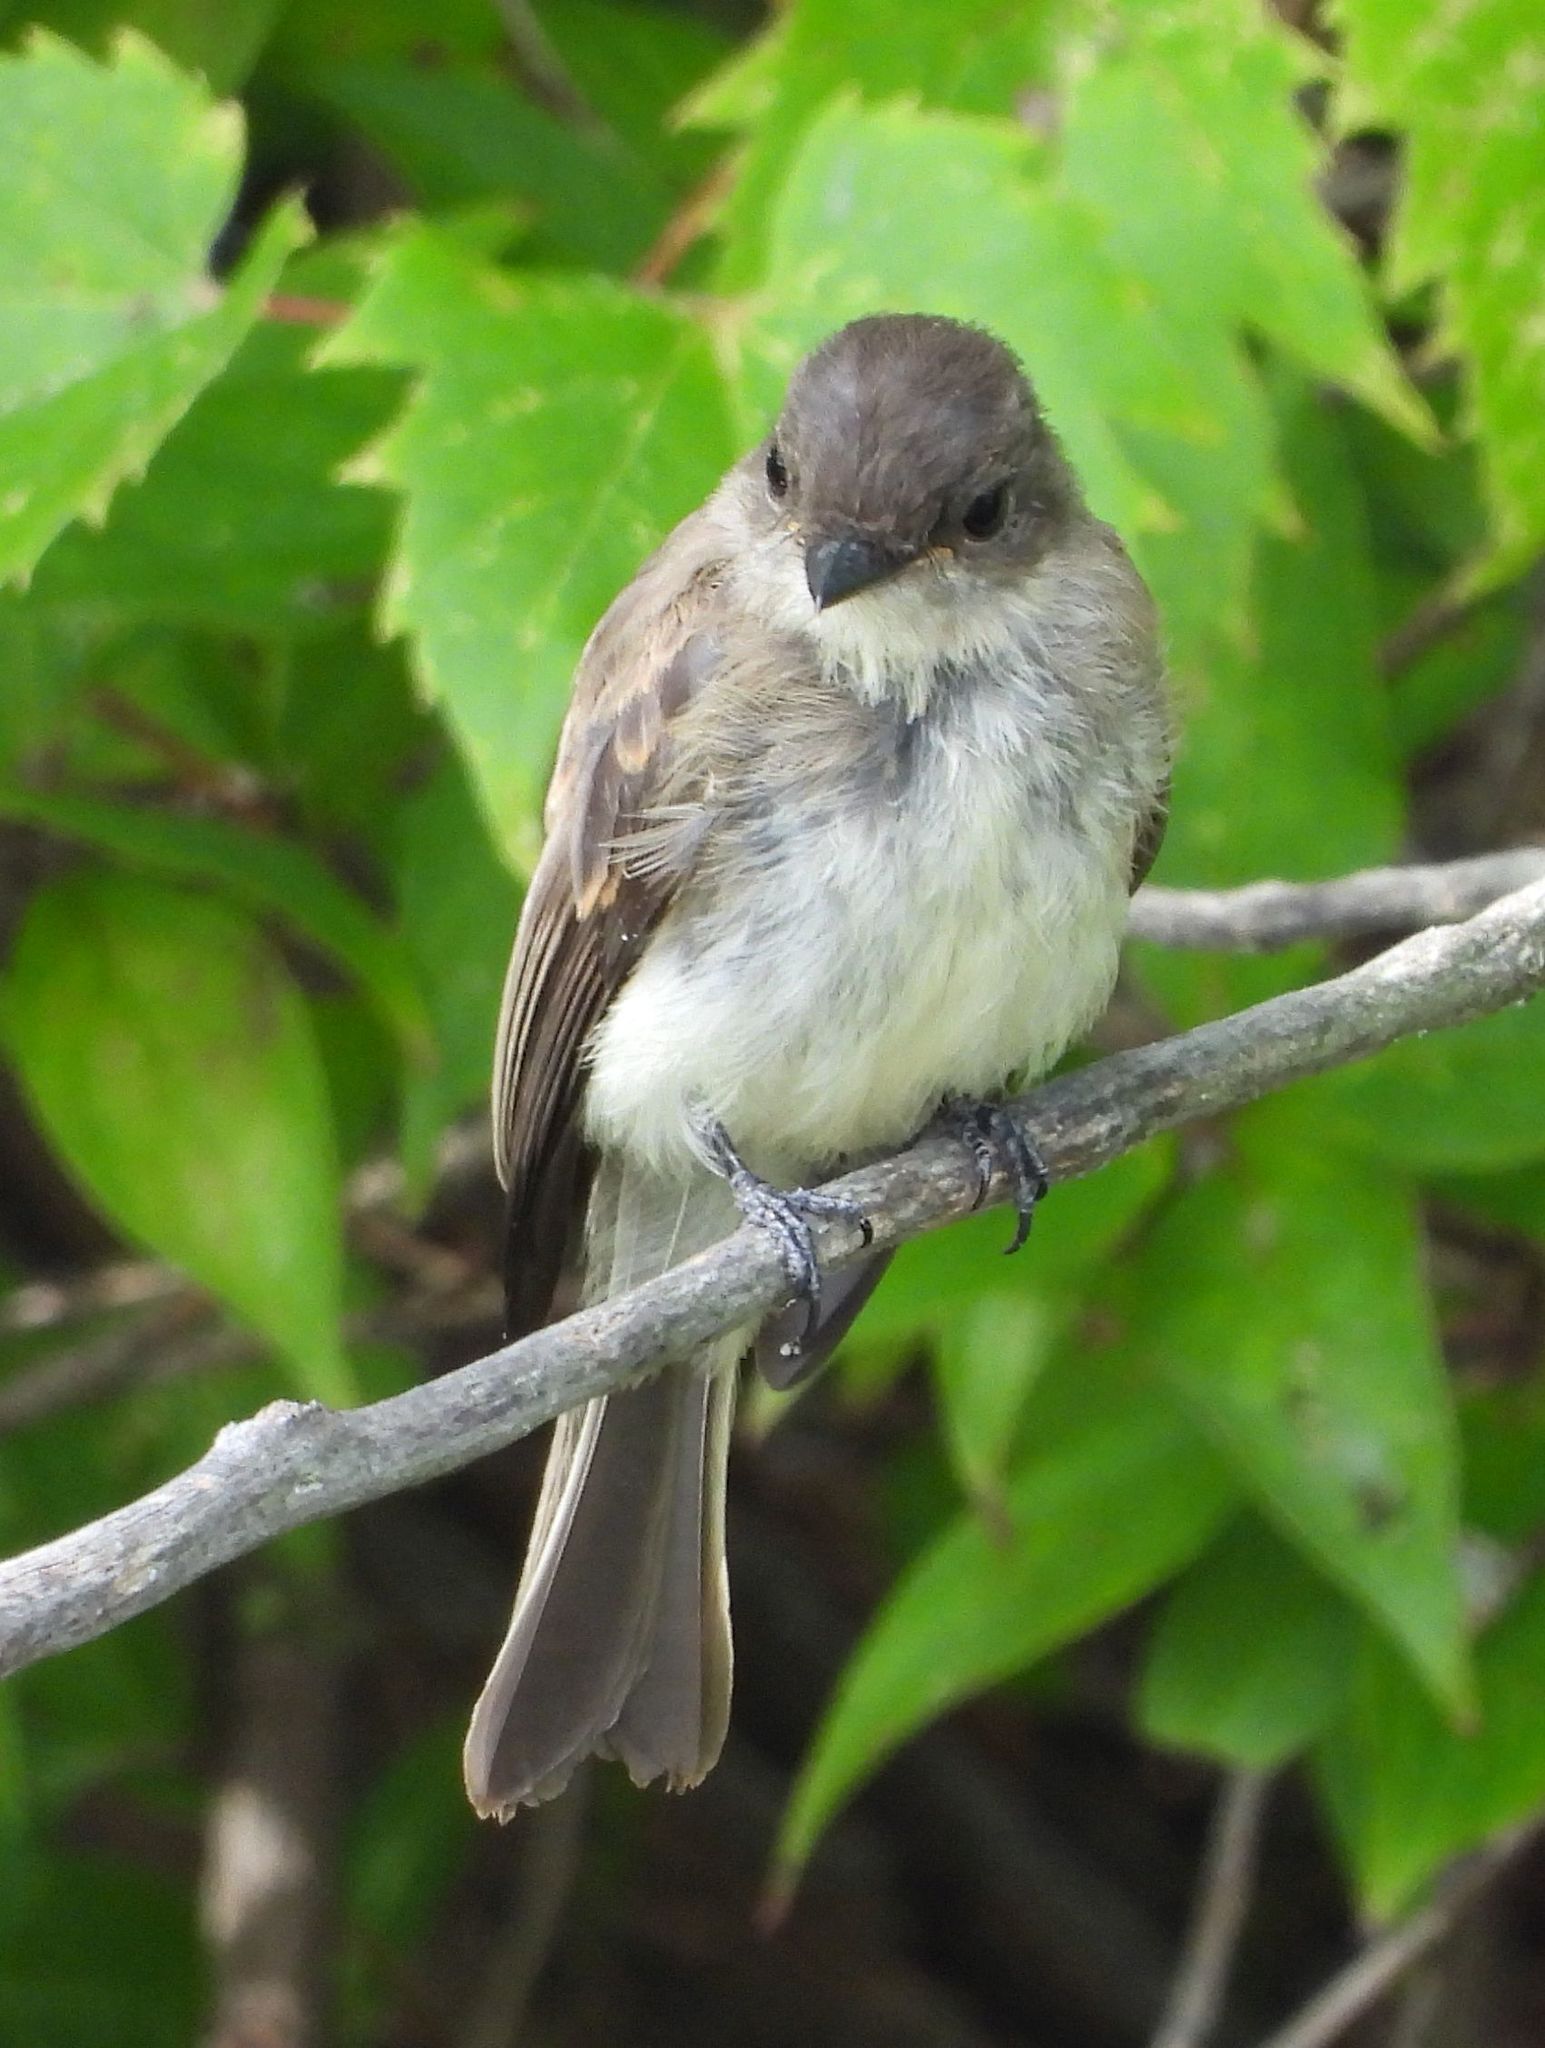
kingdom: Animalia
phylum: Chordata
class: Aves
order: Passeriformes
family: Tyrannidae
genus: Sayornis
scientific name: Sayornis phoebe
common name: Eastern phoebe
